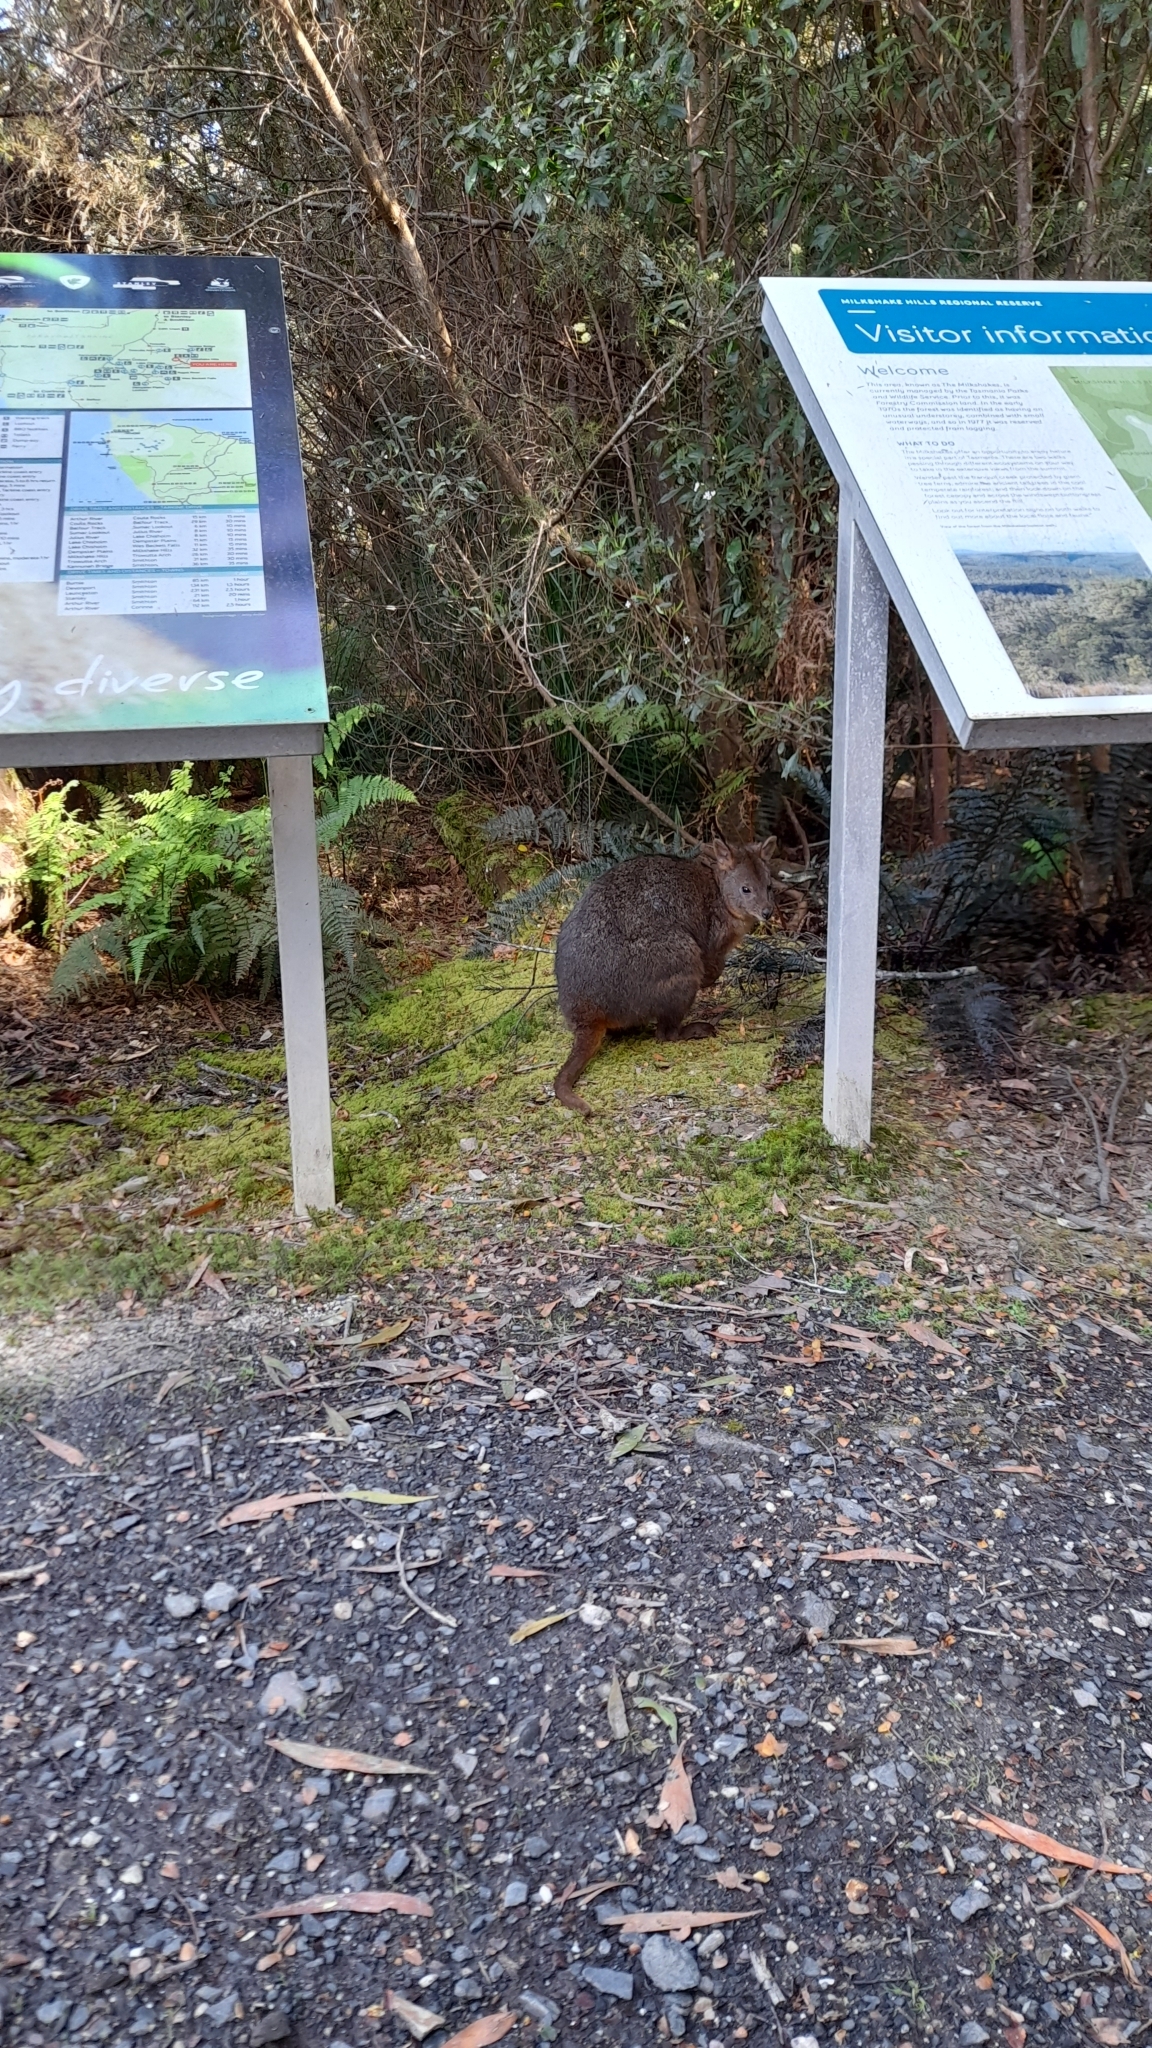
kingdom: Animalia
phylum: Chordata
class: Mammalia
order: Diprotodontia
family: Macropodidae
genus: Thylogale
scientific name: Thylogale billardierii
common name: Tasmanian pademelon
